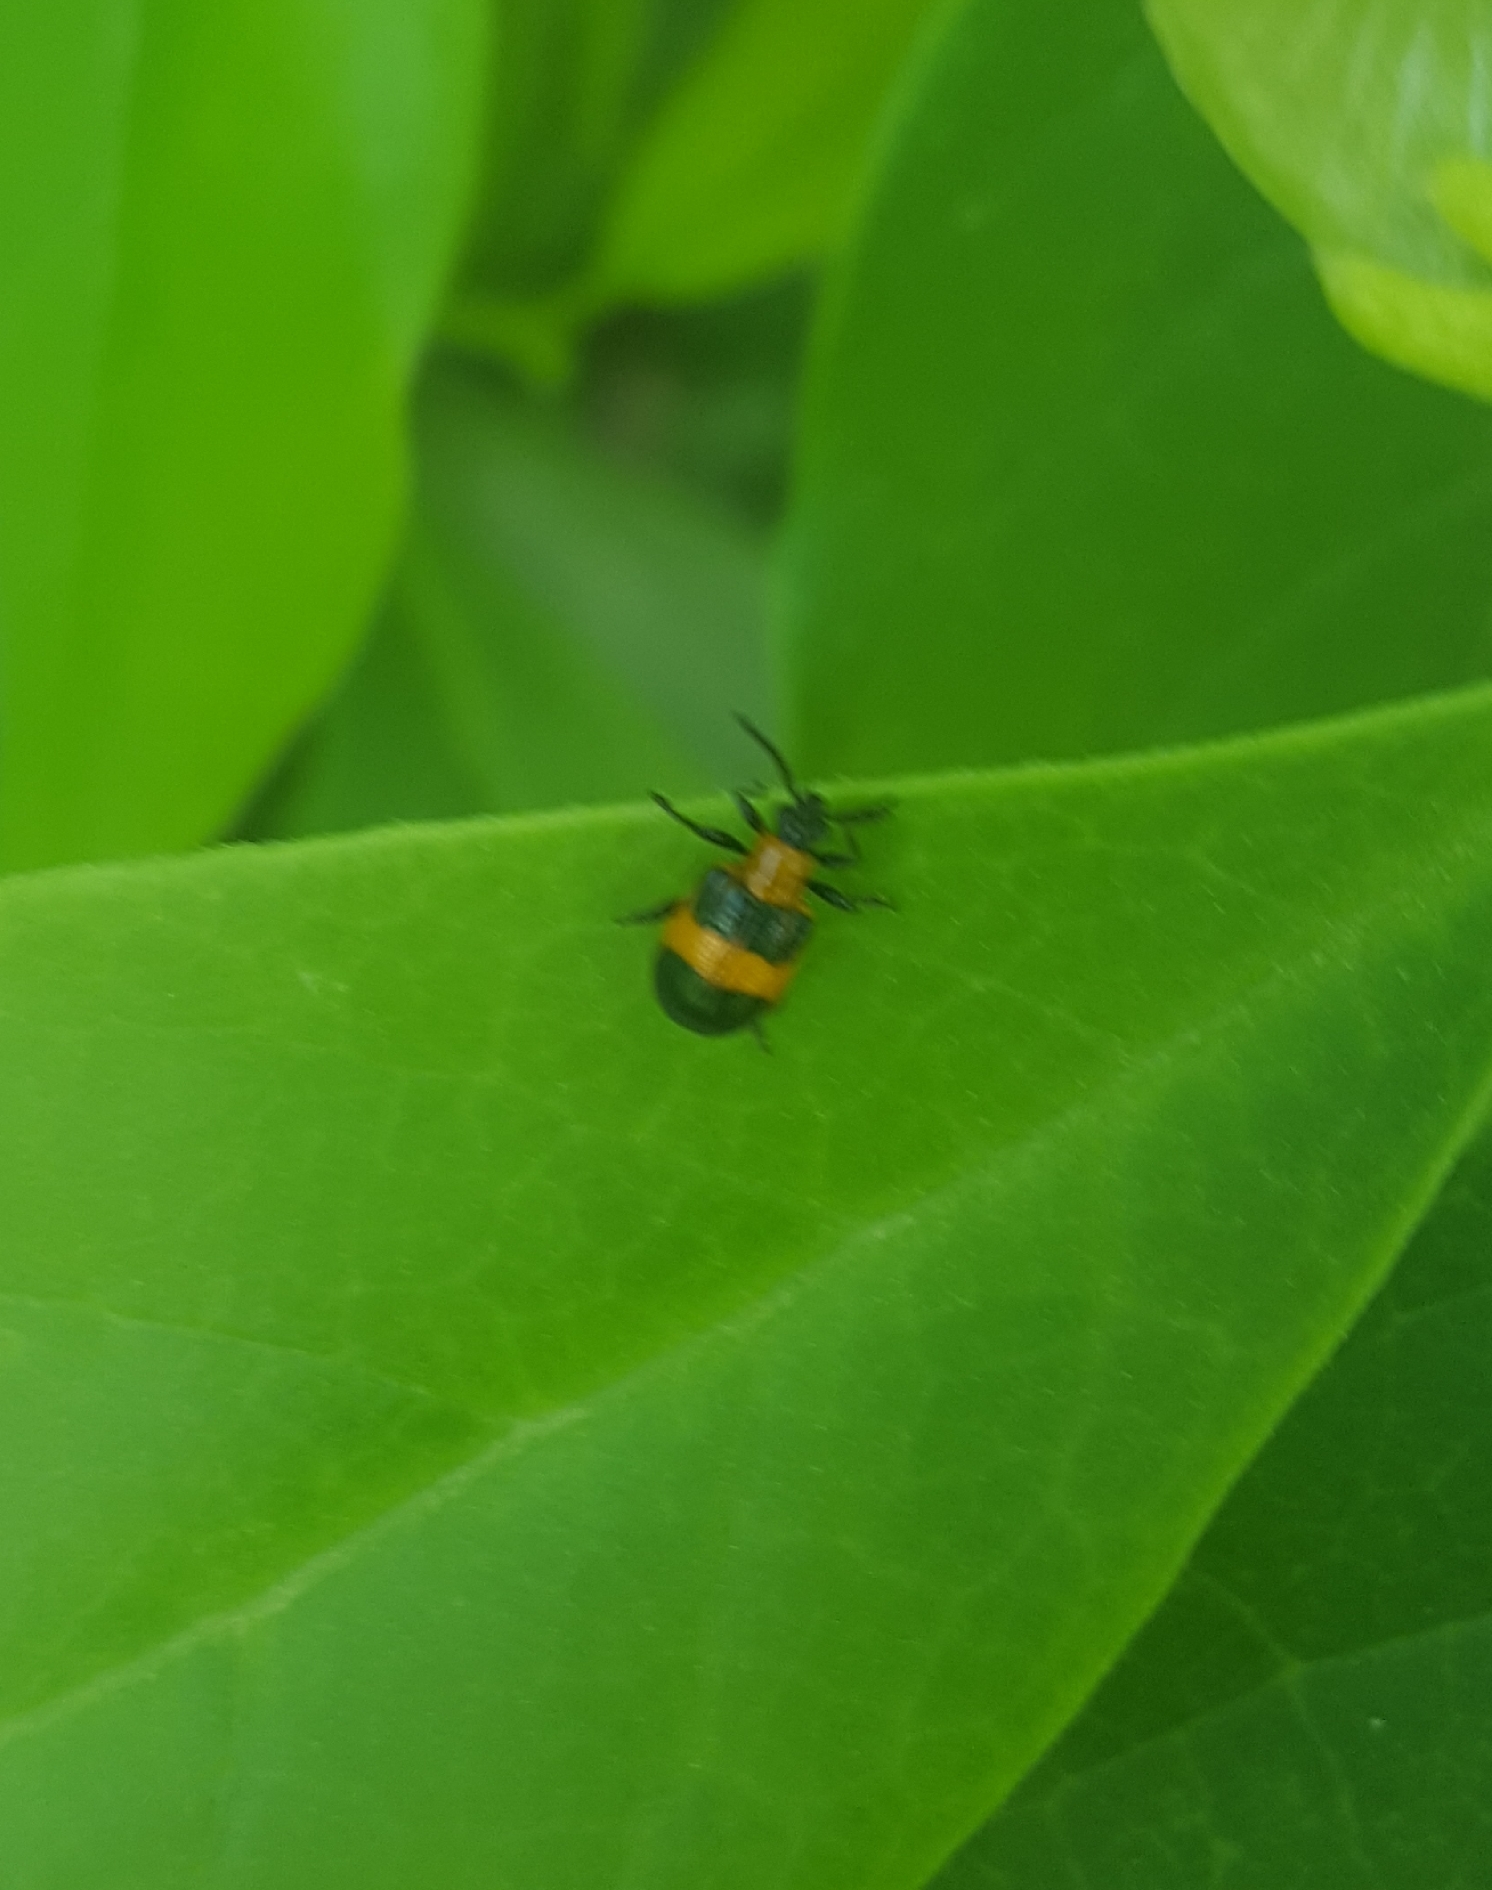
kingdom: Animalia
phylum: Arthropoda
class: Insecta
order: Coleoptera
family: Chrysomelidae
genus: Lema
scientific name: Lema solani
